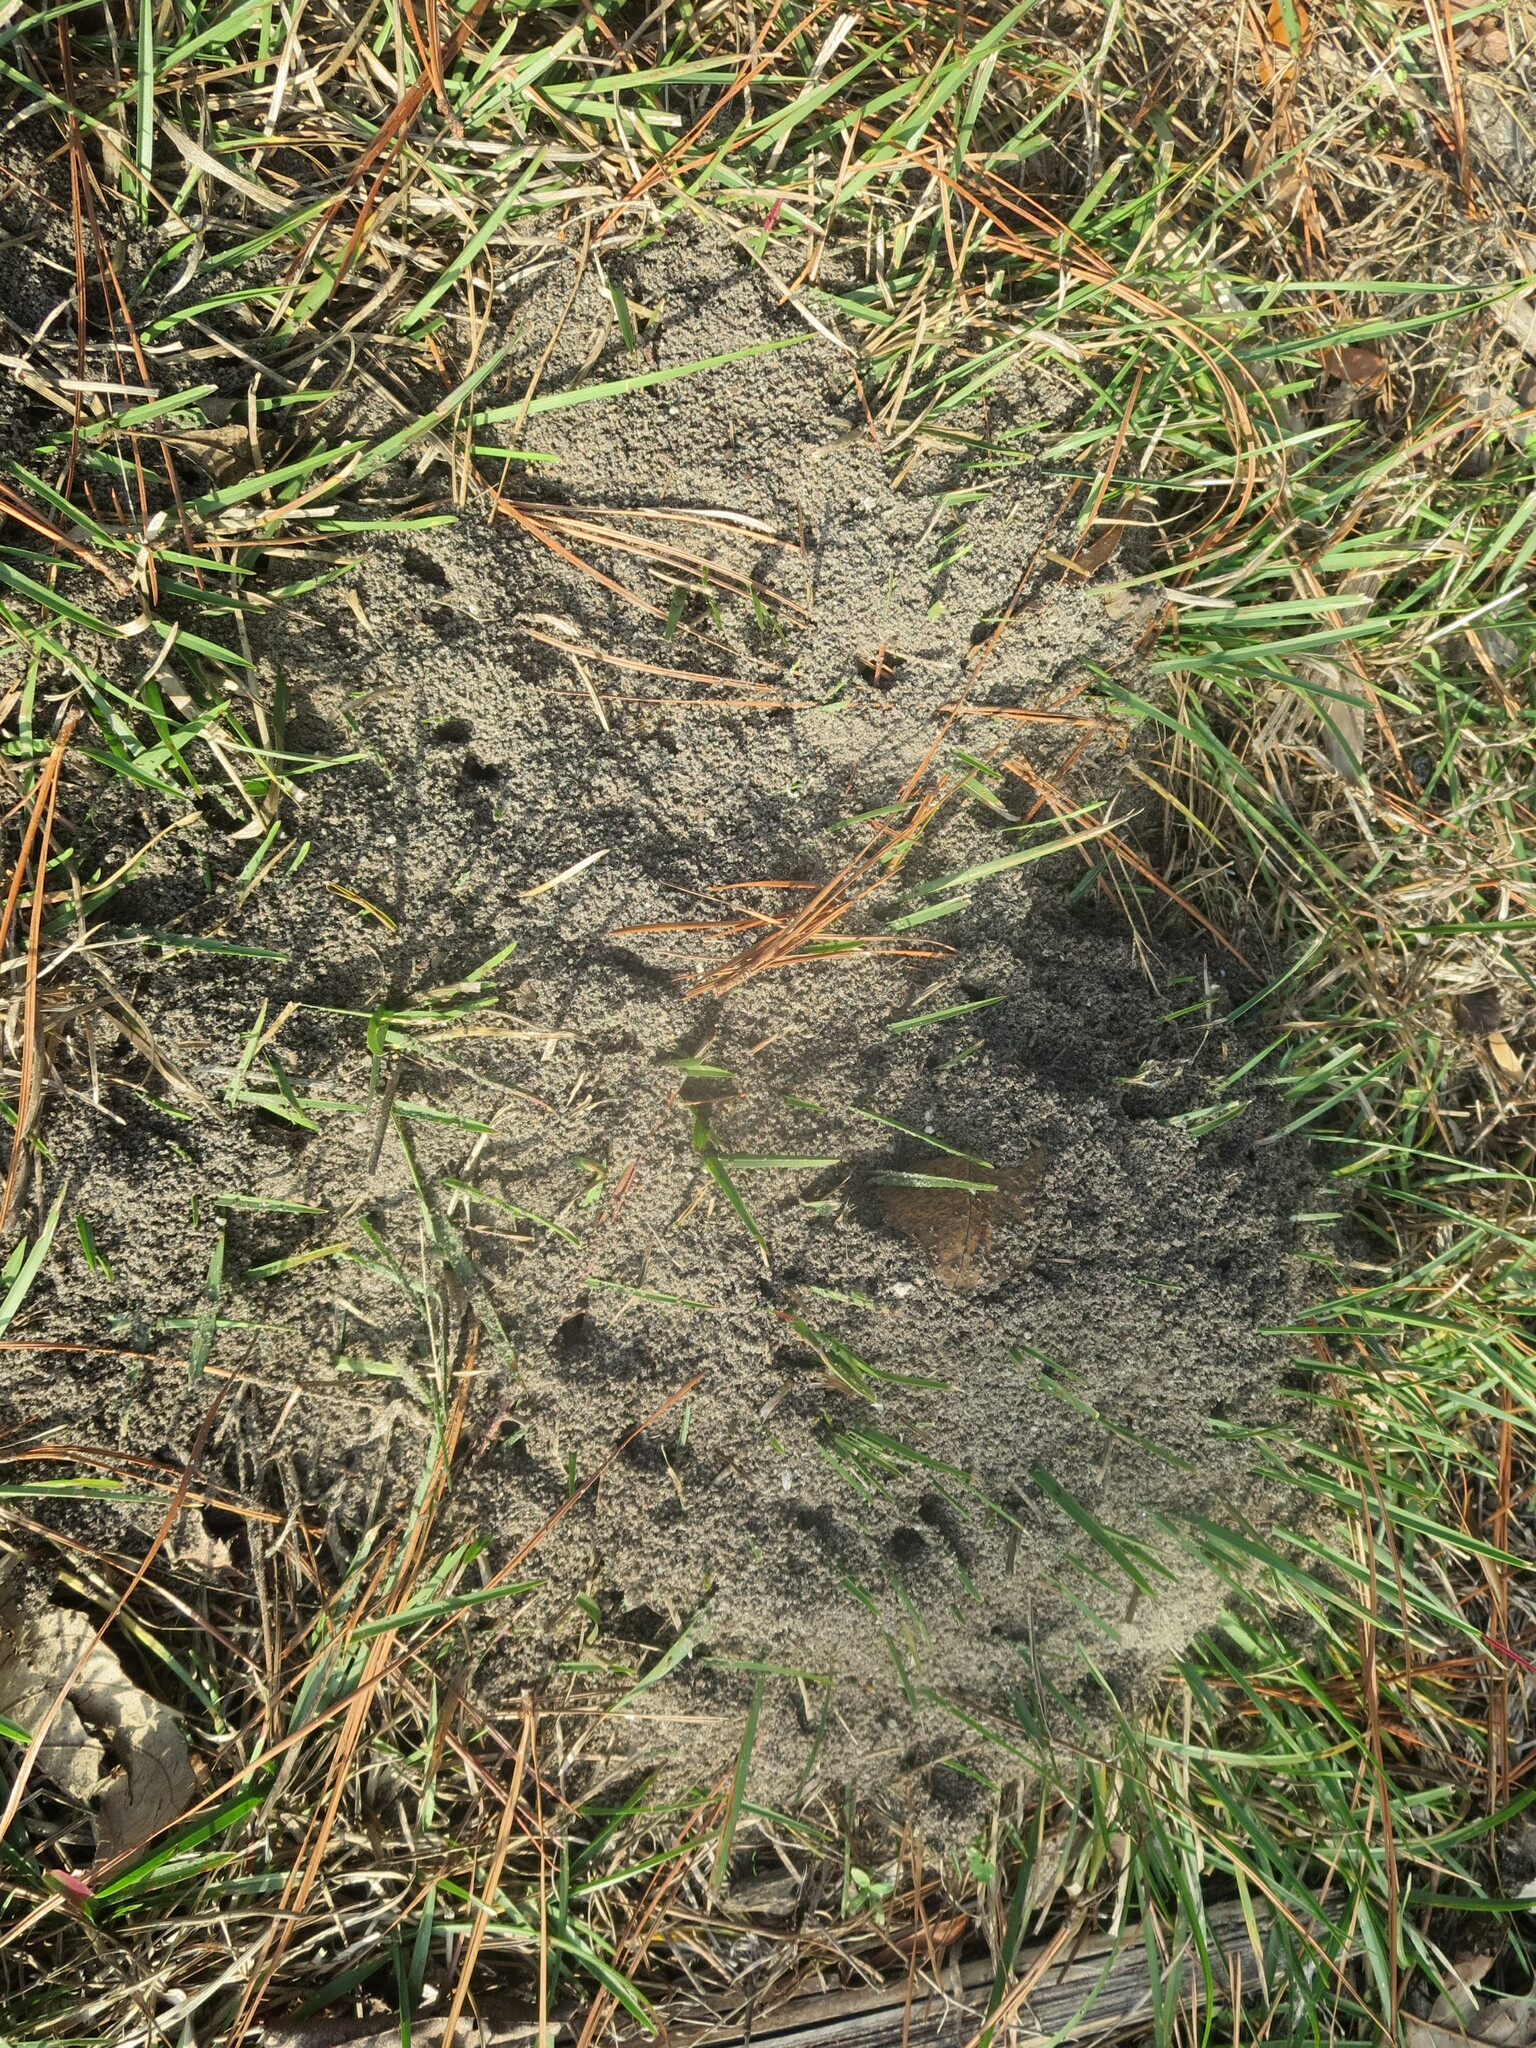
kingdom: Animalia
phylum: Arthropoda
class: Insecta
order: Hymenoptera
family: Formicidae
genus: Solenopsis
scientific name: Solenopsis invicta
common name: Red imported fire ant
